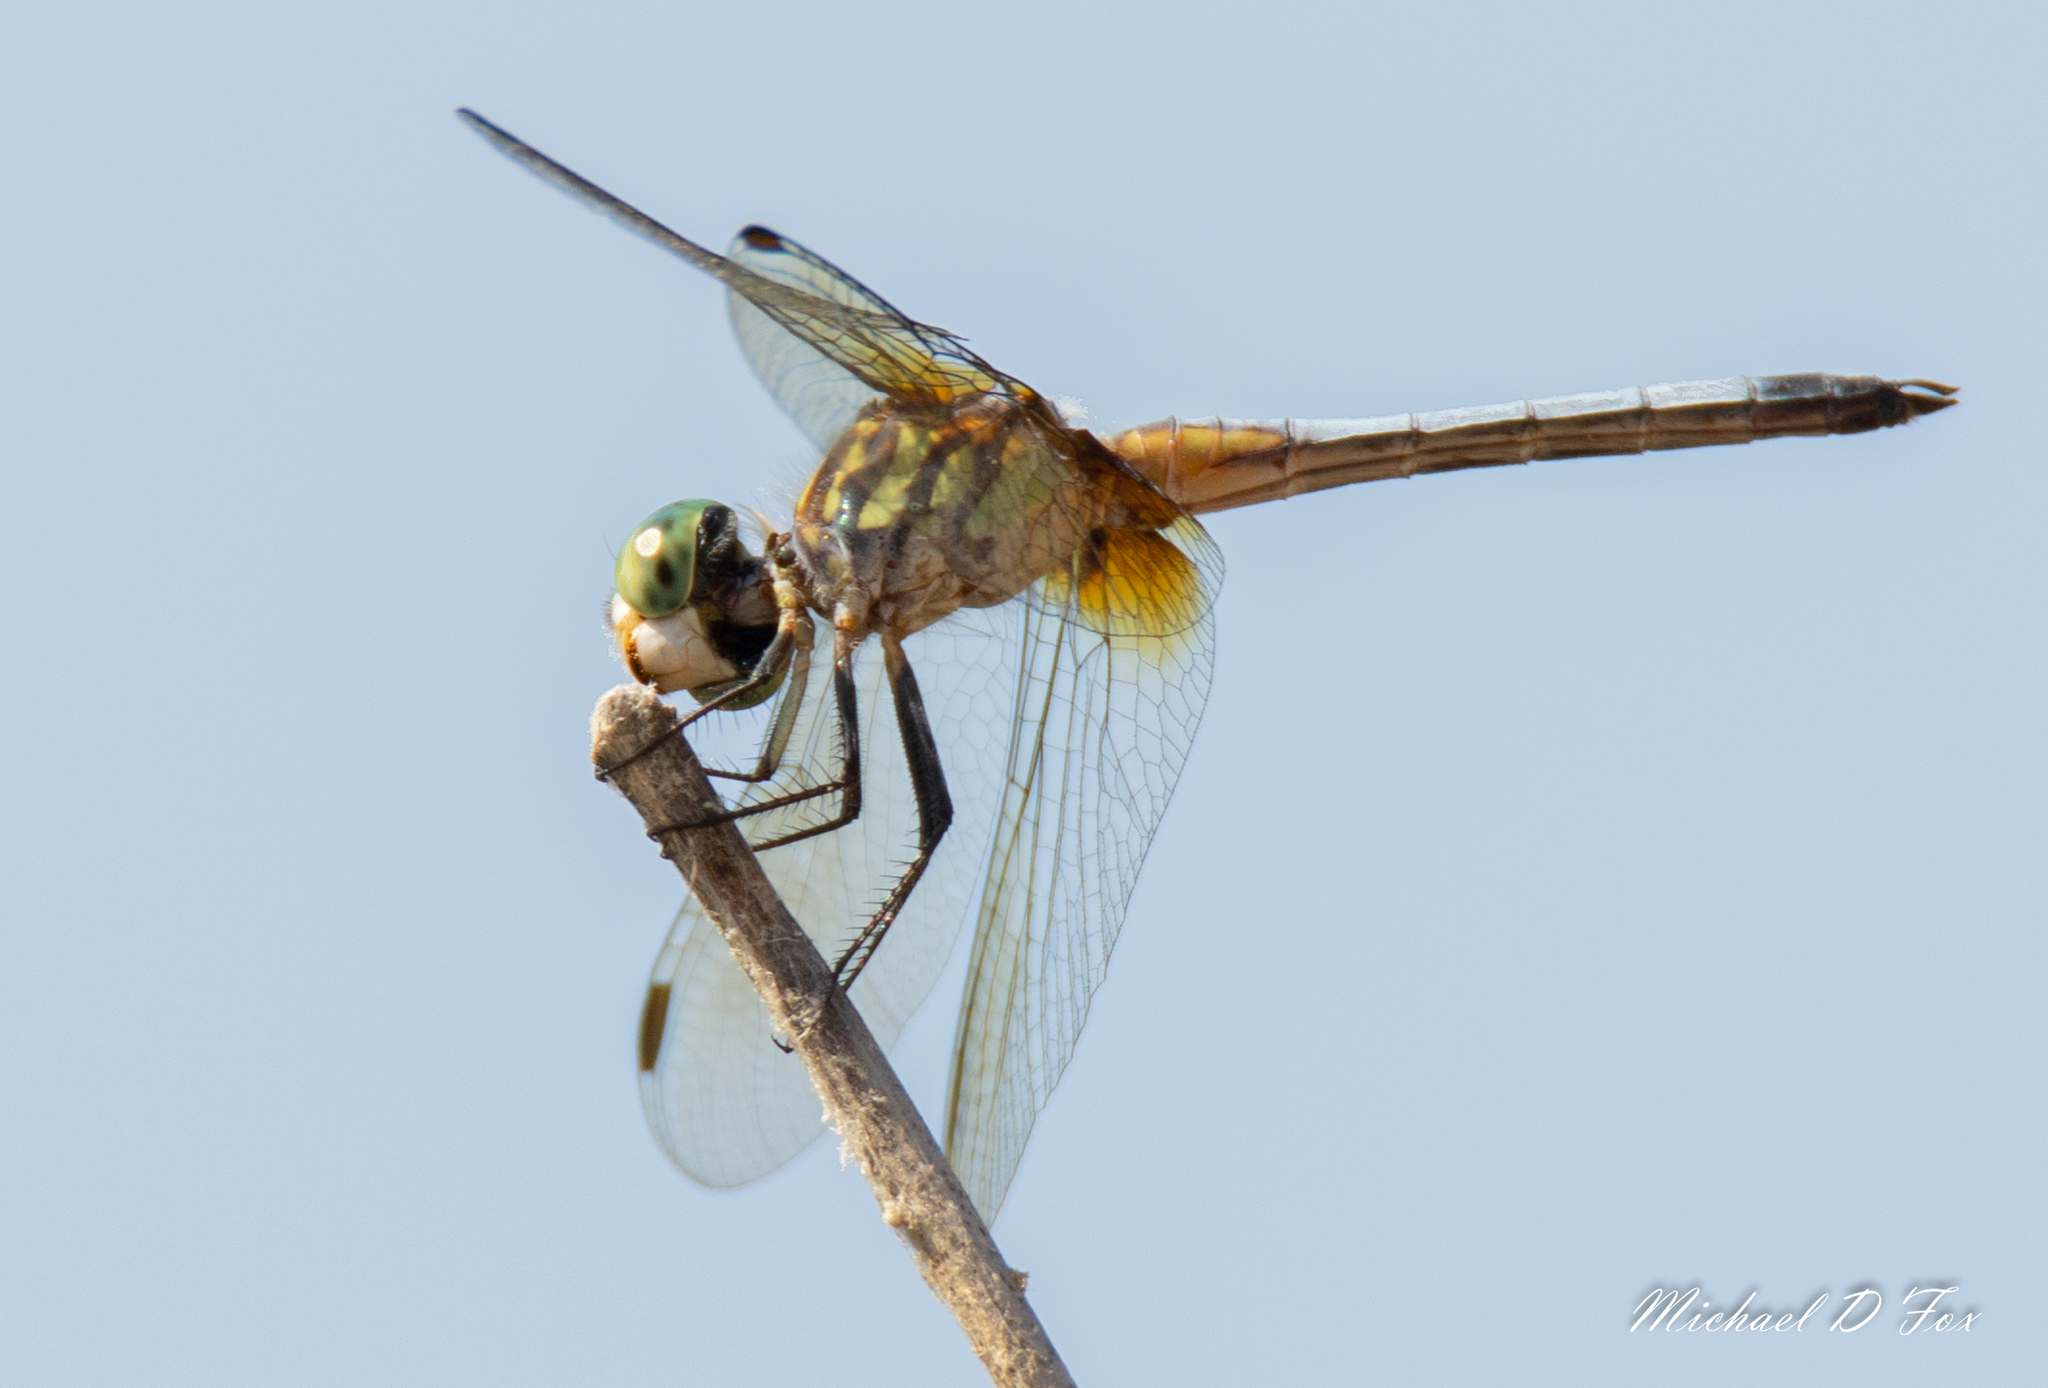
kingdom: Animalia
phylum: Arthropoda
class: Insecta
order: Odonata
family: Libellulidae
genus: Pachydiplax
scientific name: Pachydiplax longipennis
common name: Blue dasher
